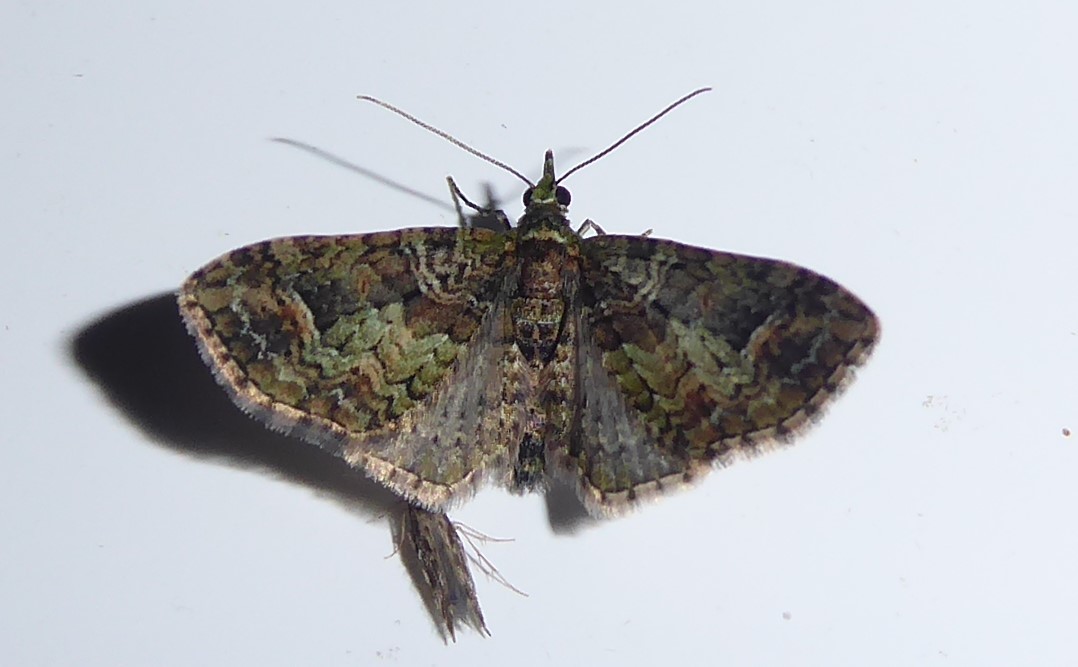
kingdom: Animalia
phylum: Arthropoda
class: Insecta
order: Lepidoptera
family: Geometridae
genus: Idaea
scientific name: Idaea mutanda
